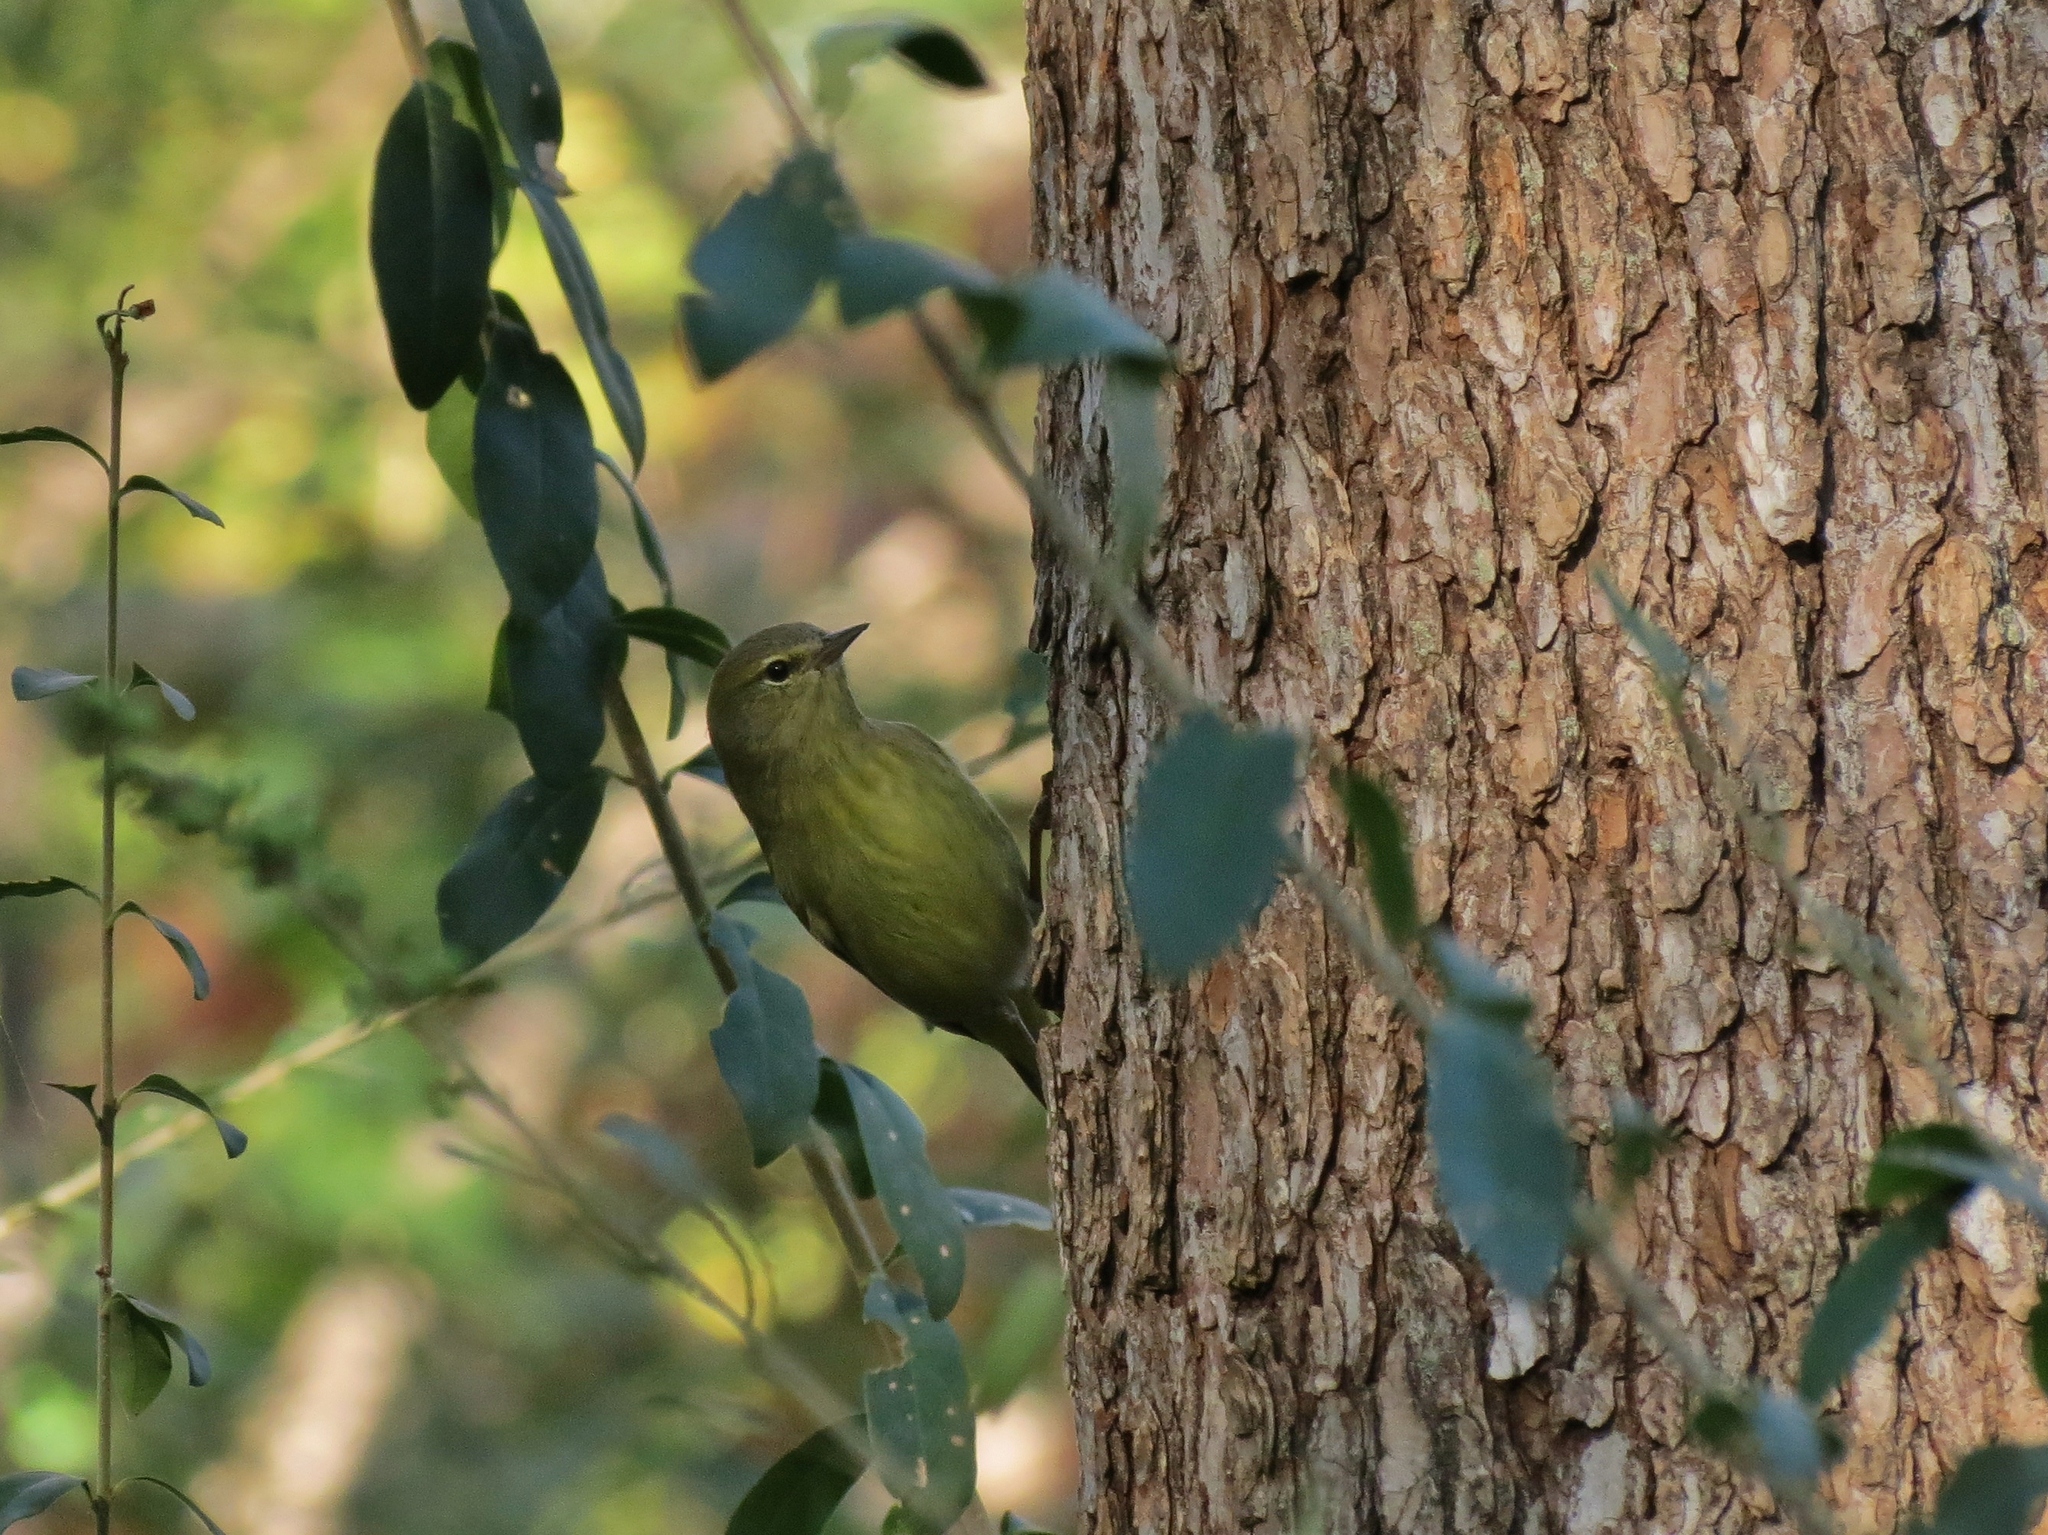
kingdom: Animalia
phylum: Chordata
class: Aves
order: Passeriformes
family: Parulidae
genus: Leiothlypis
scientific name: Leiothlypis celata
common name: Orange-crowned warbler
